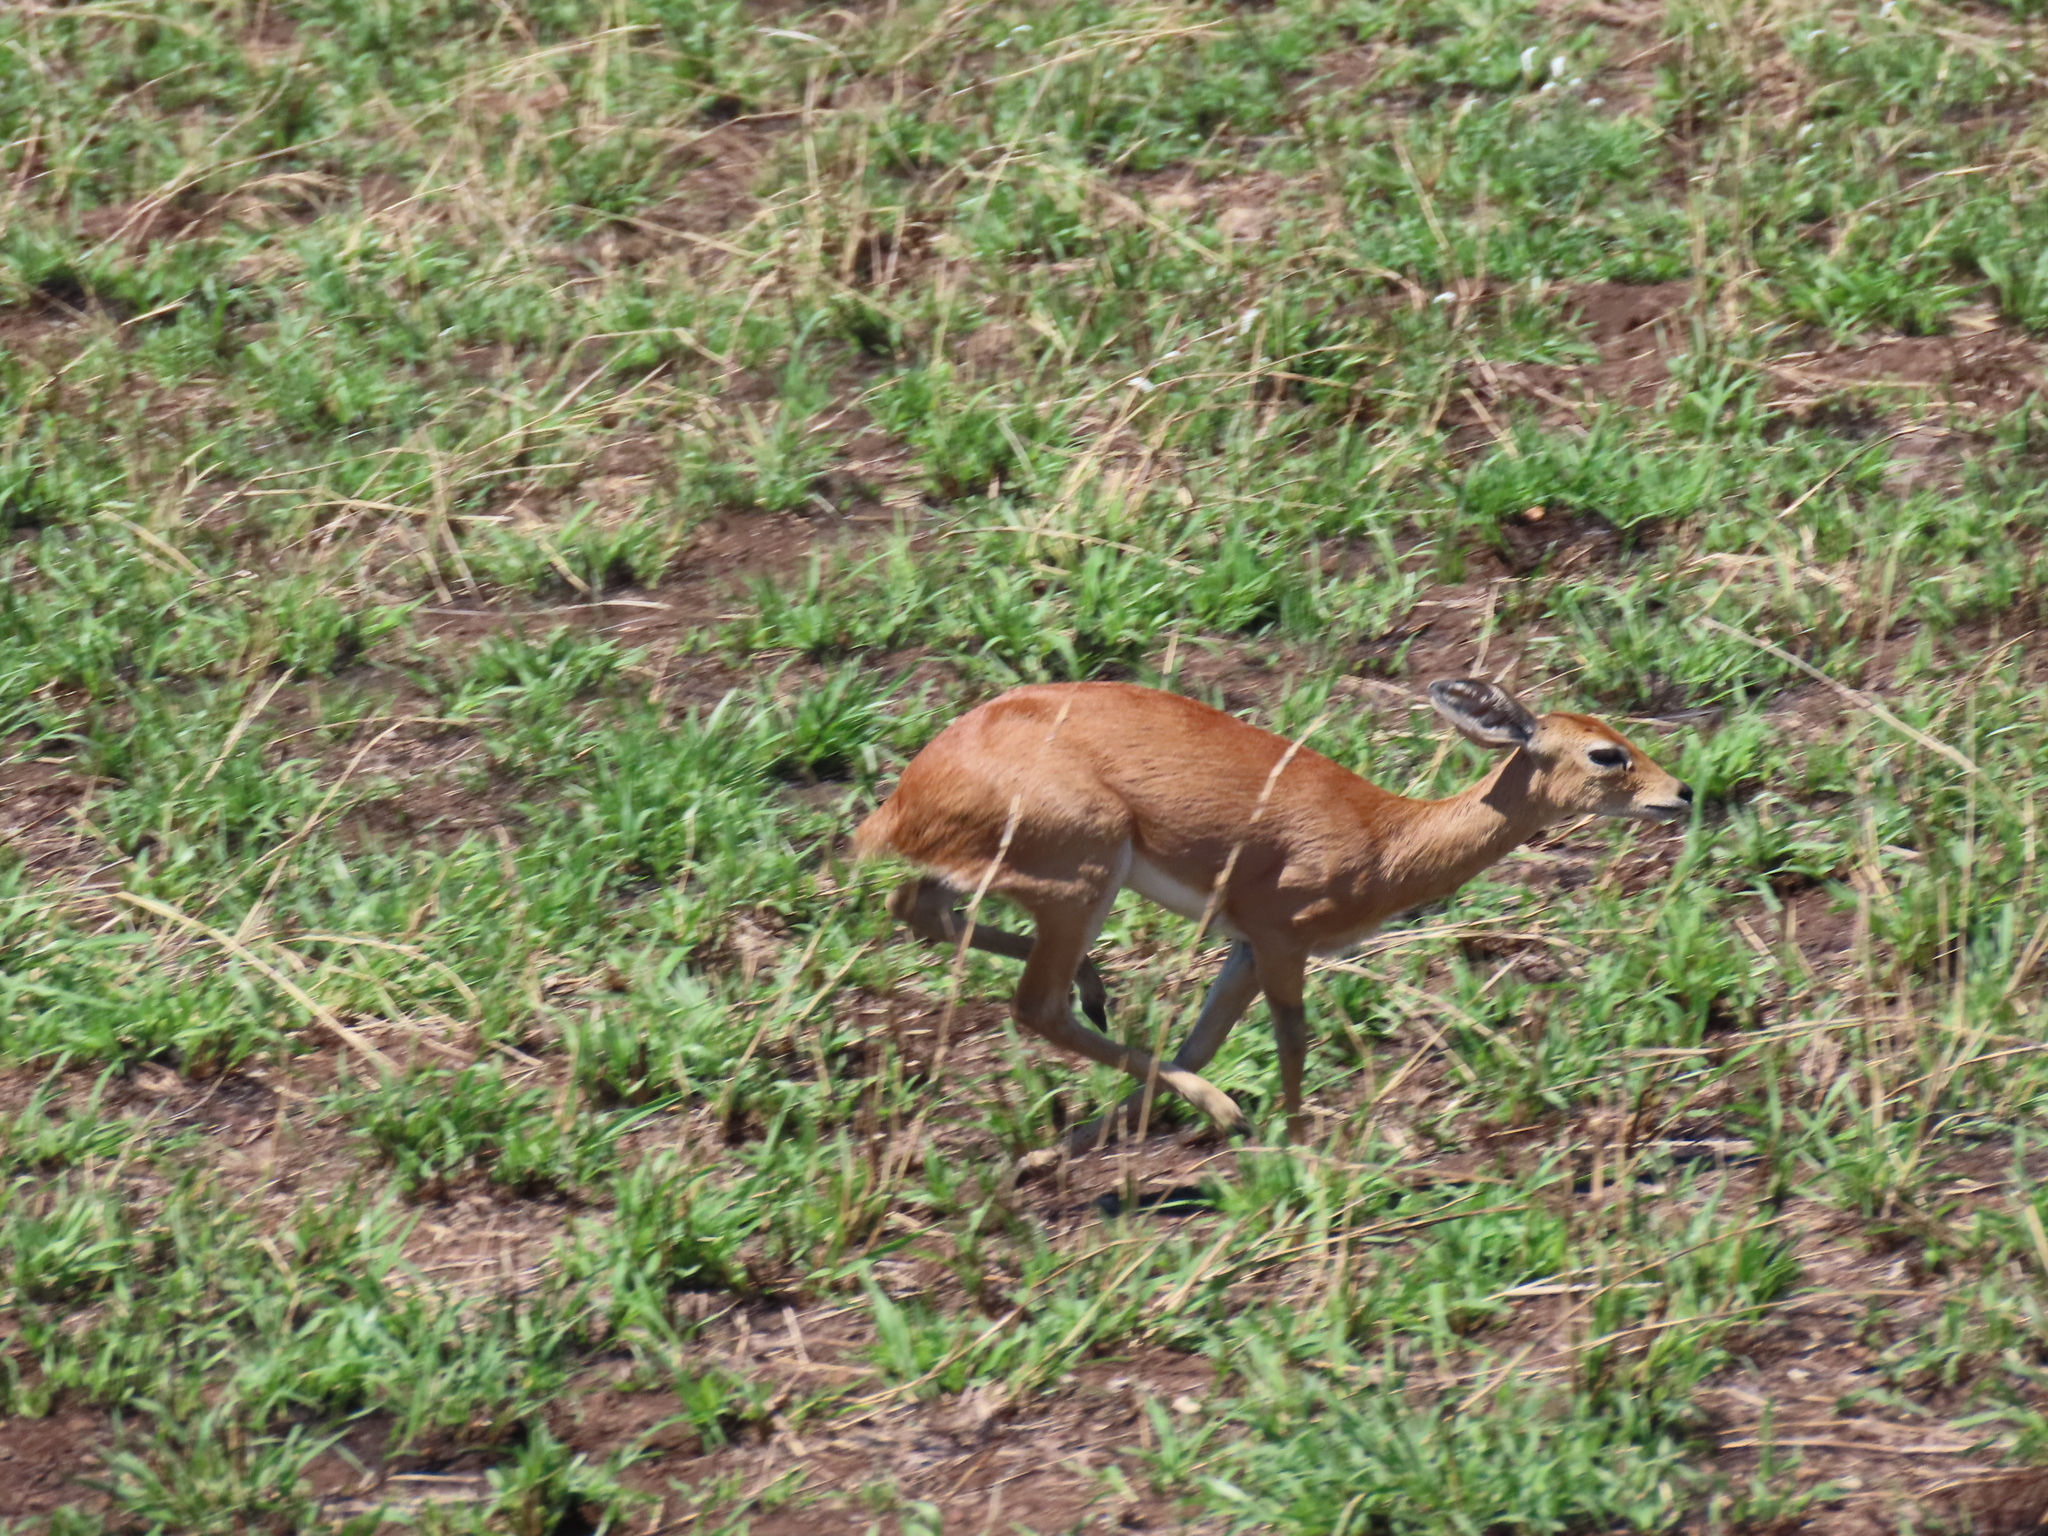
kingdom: Animalia
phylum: Chordata
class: Mammalia
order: Artiodactyla
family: Bovidae
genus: Raphicerus
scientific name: Raphicerus campestris
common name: Steenbok
